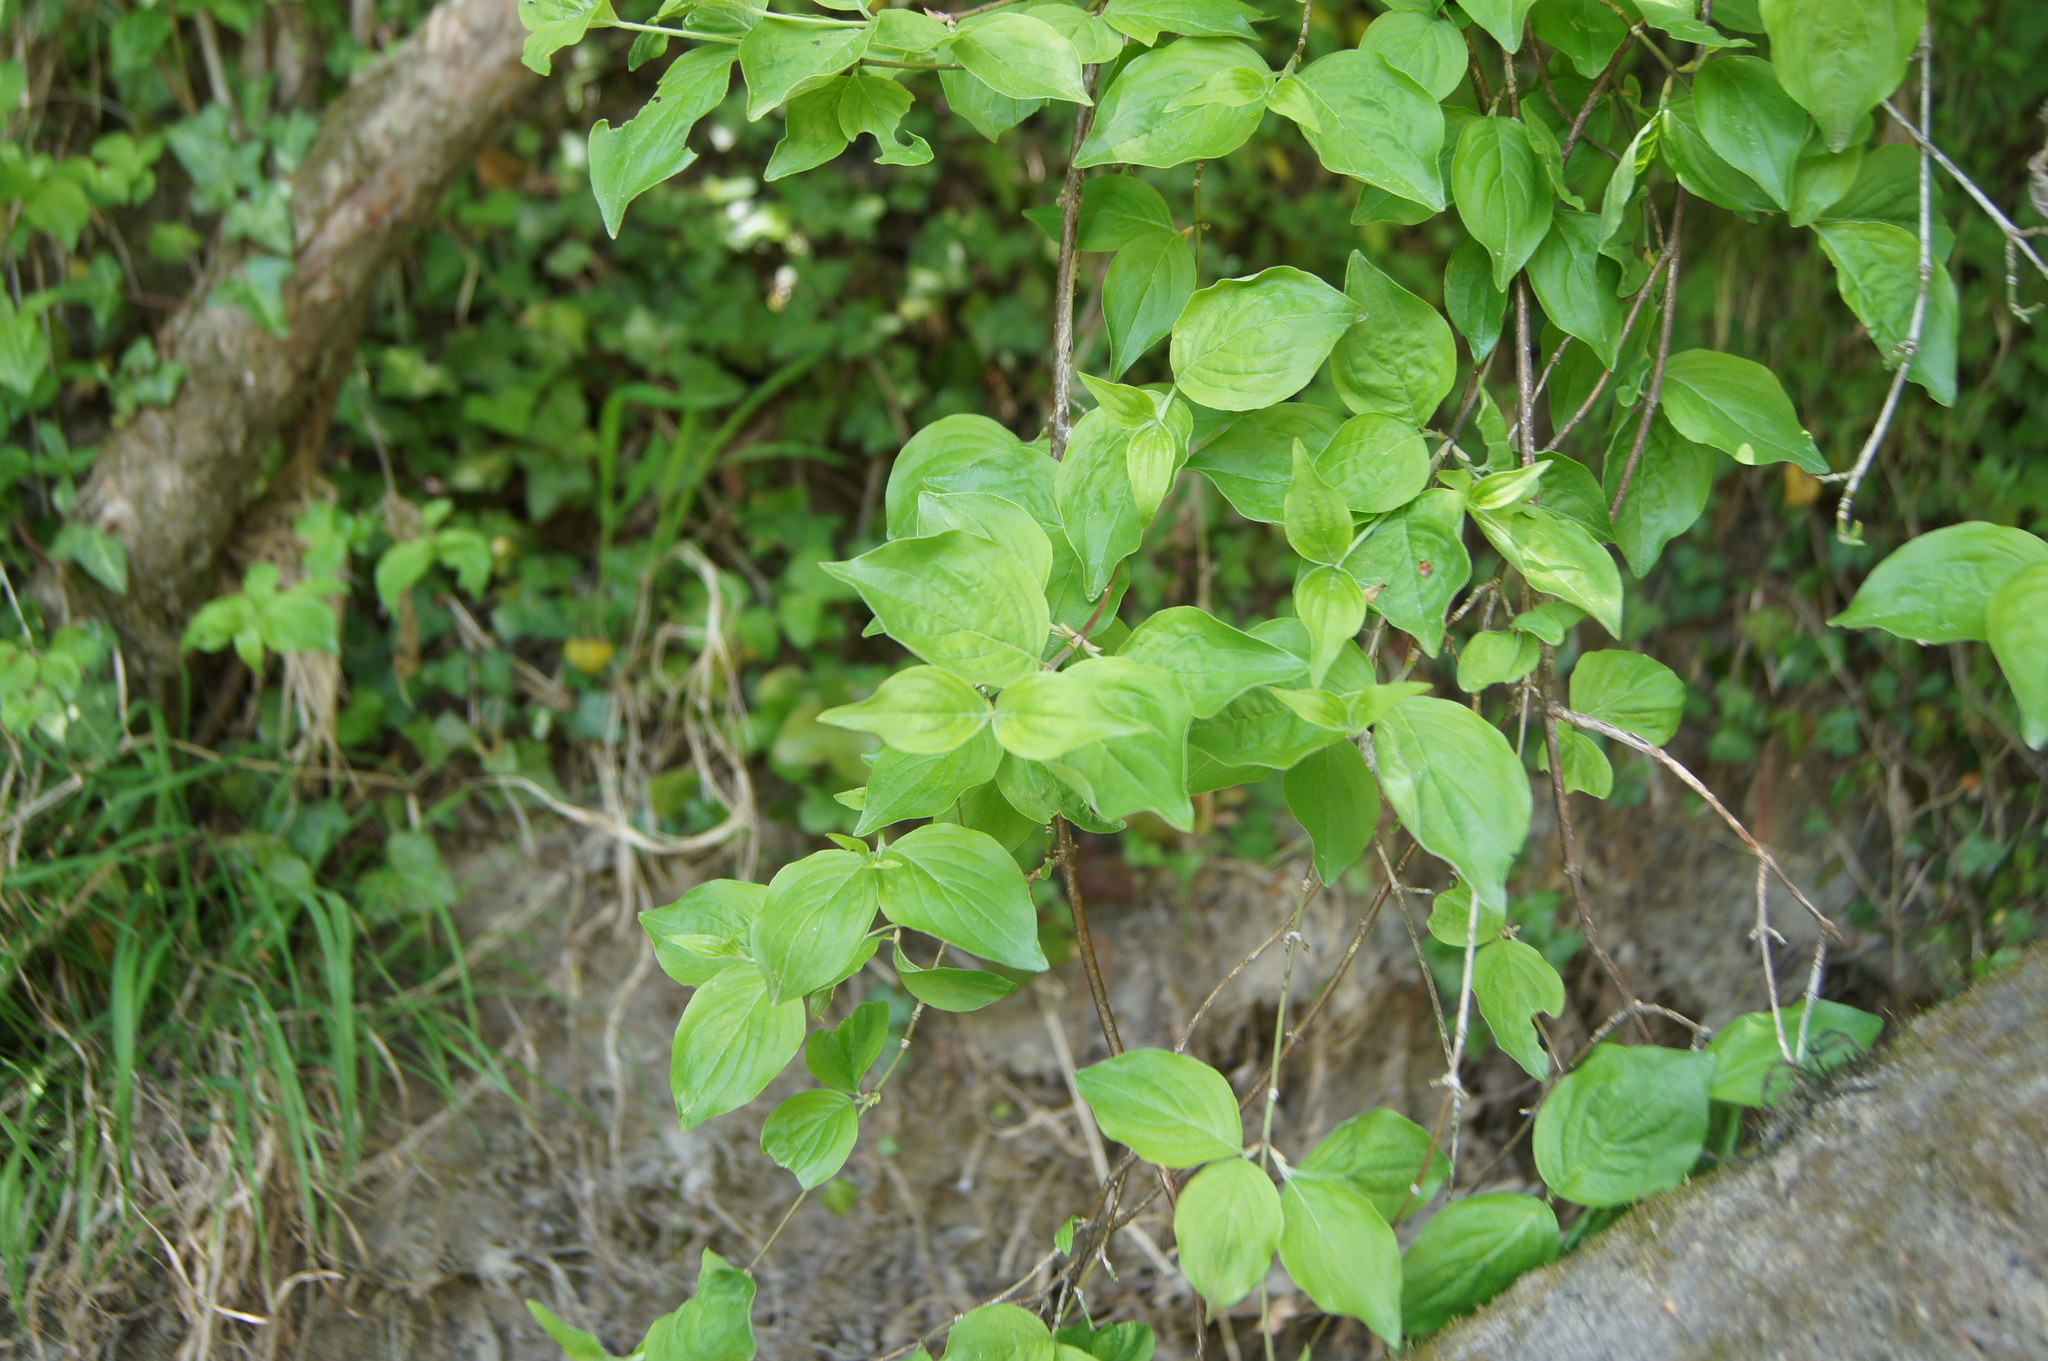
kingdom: Plantae
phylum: Tracheophyta
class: Magnoliopsida
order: Cornales
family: Hydrangeaceae
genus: Philadelphus
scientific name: Philadelphus coronarius
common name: Mock orange
